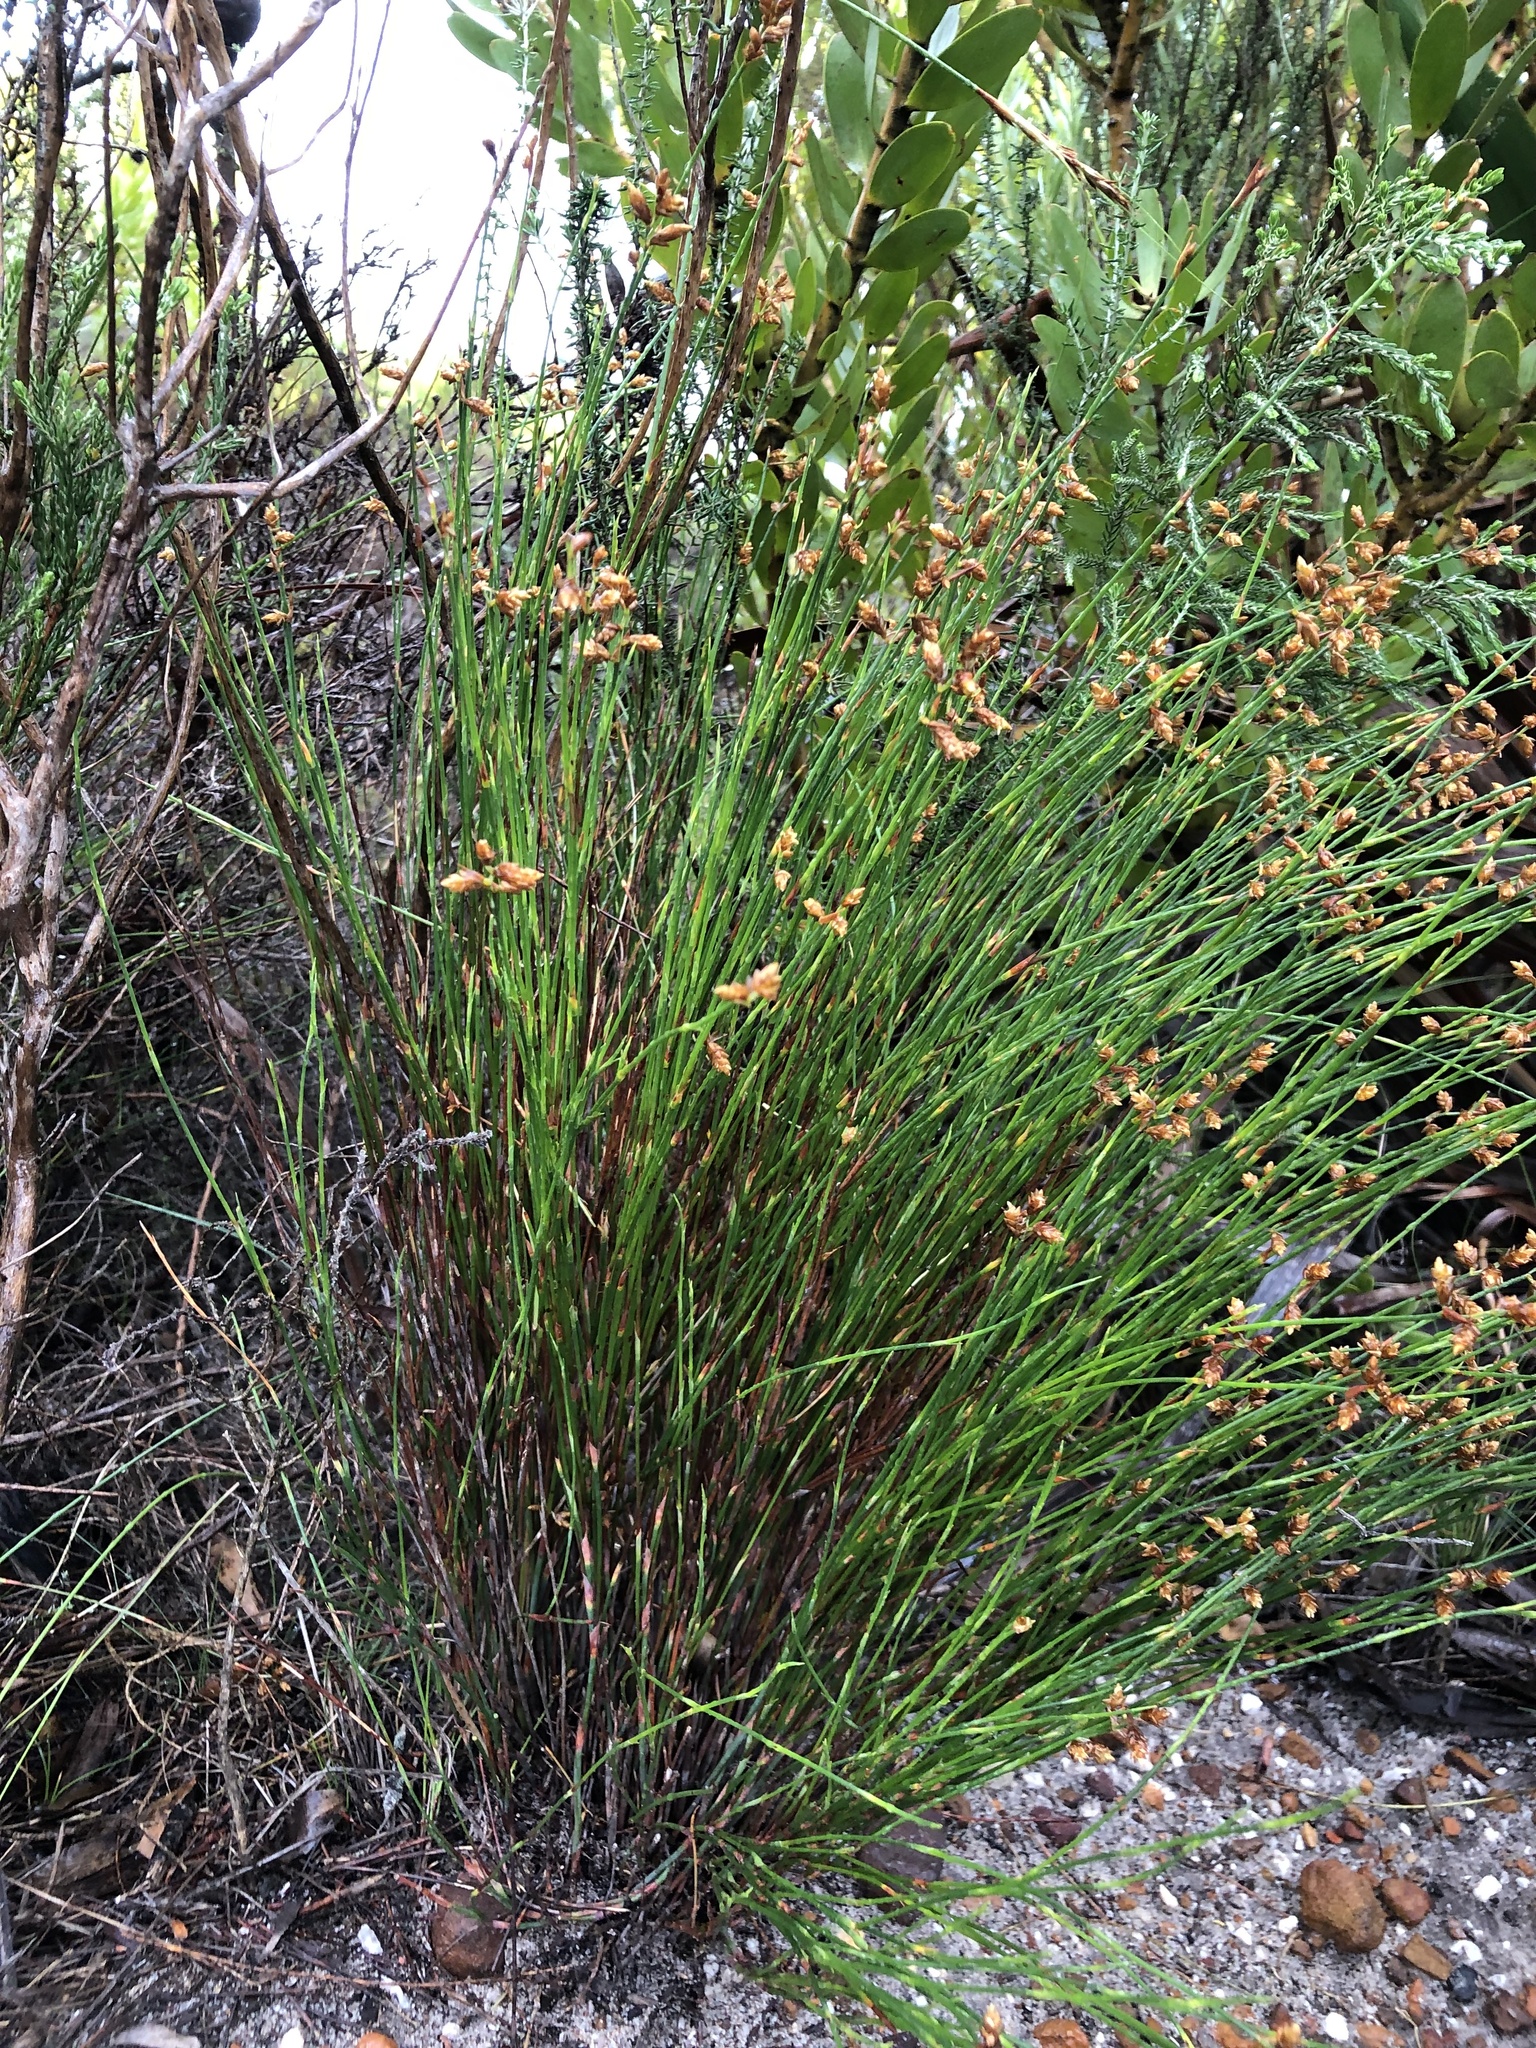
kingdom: Plantae
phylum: Tracheophyta
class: Liliopsida
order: Poales
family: Restionaceae
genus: Mastersiella
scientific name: Mastersiella digitata
